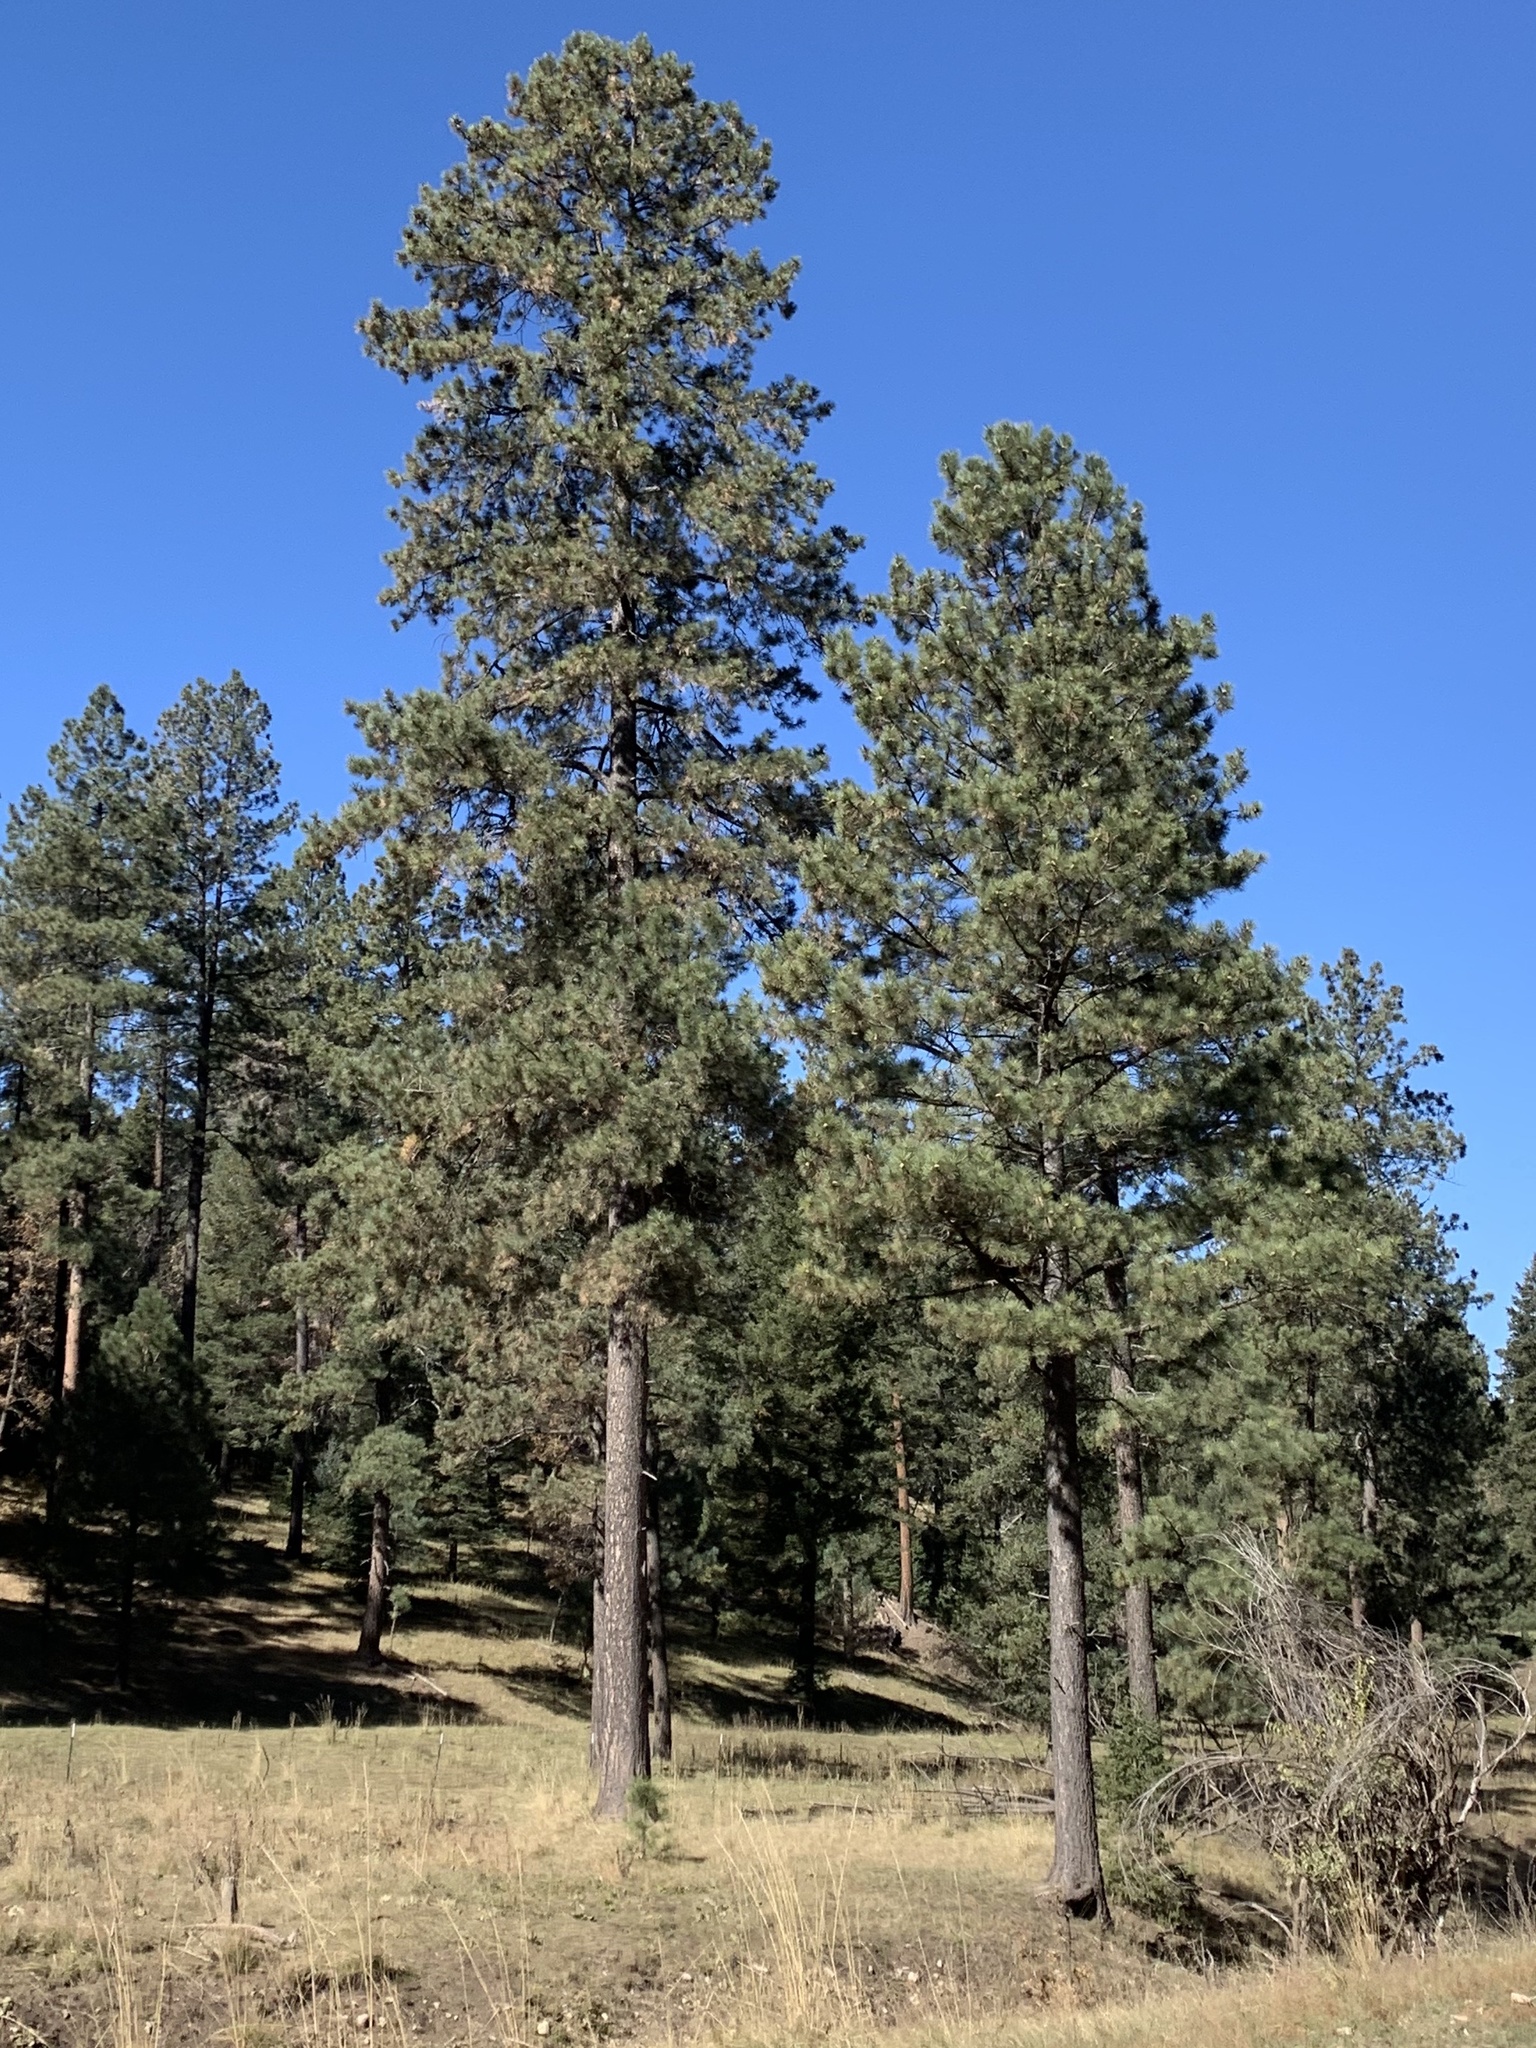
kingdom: Plantae
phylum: Tracheophyta
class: Pinopsida
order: Pinales
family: Pinaceae
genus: Pinus
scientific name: Pinus ponderosa
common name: Western yellow-pine
